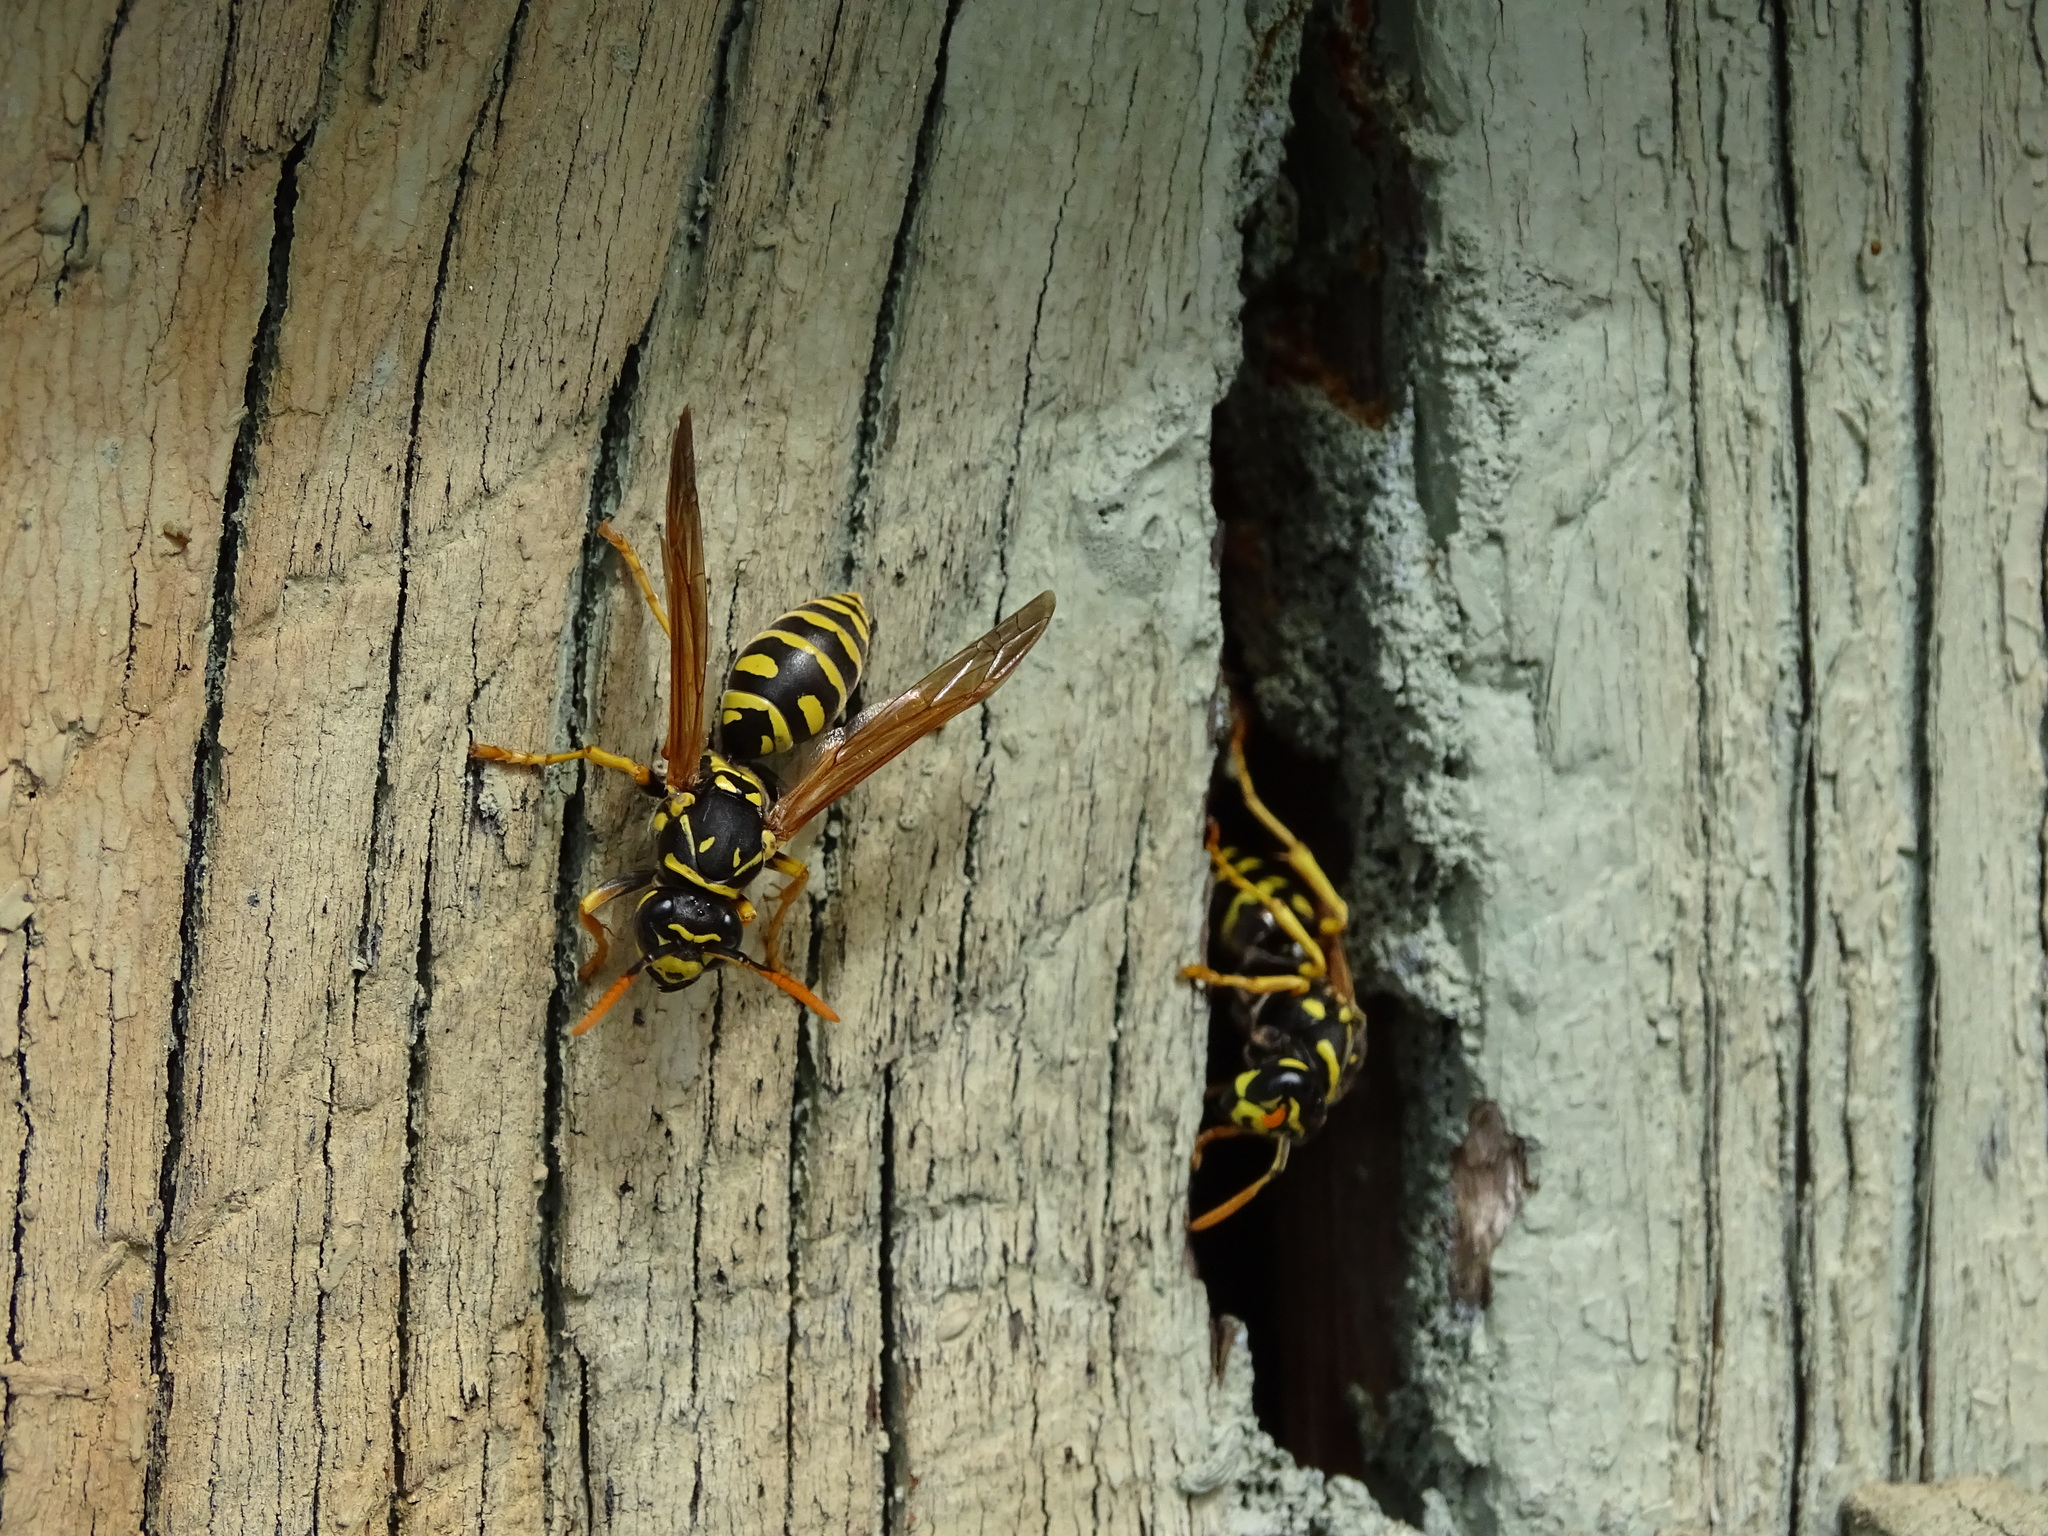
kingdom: Animalia
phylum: Arthropoda
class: Insecta
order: Hymenoptera
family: Eumenidae
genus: Polistes
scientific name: Polistes dominula
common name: Paper wasp
